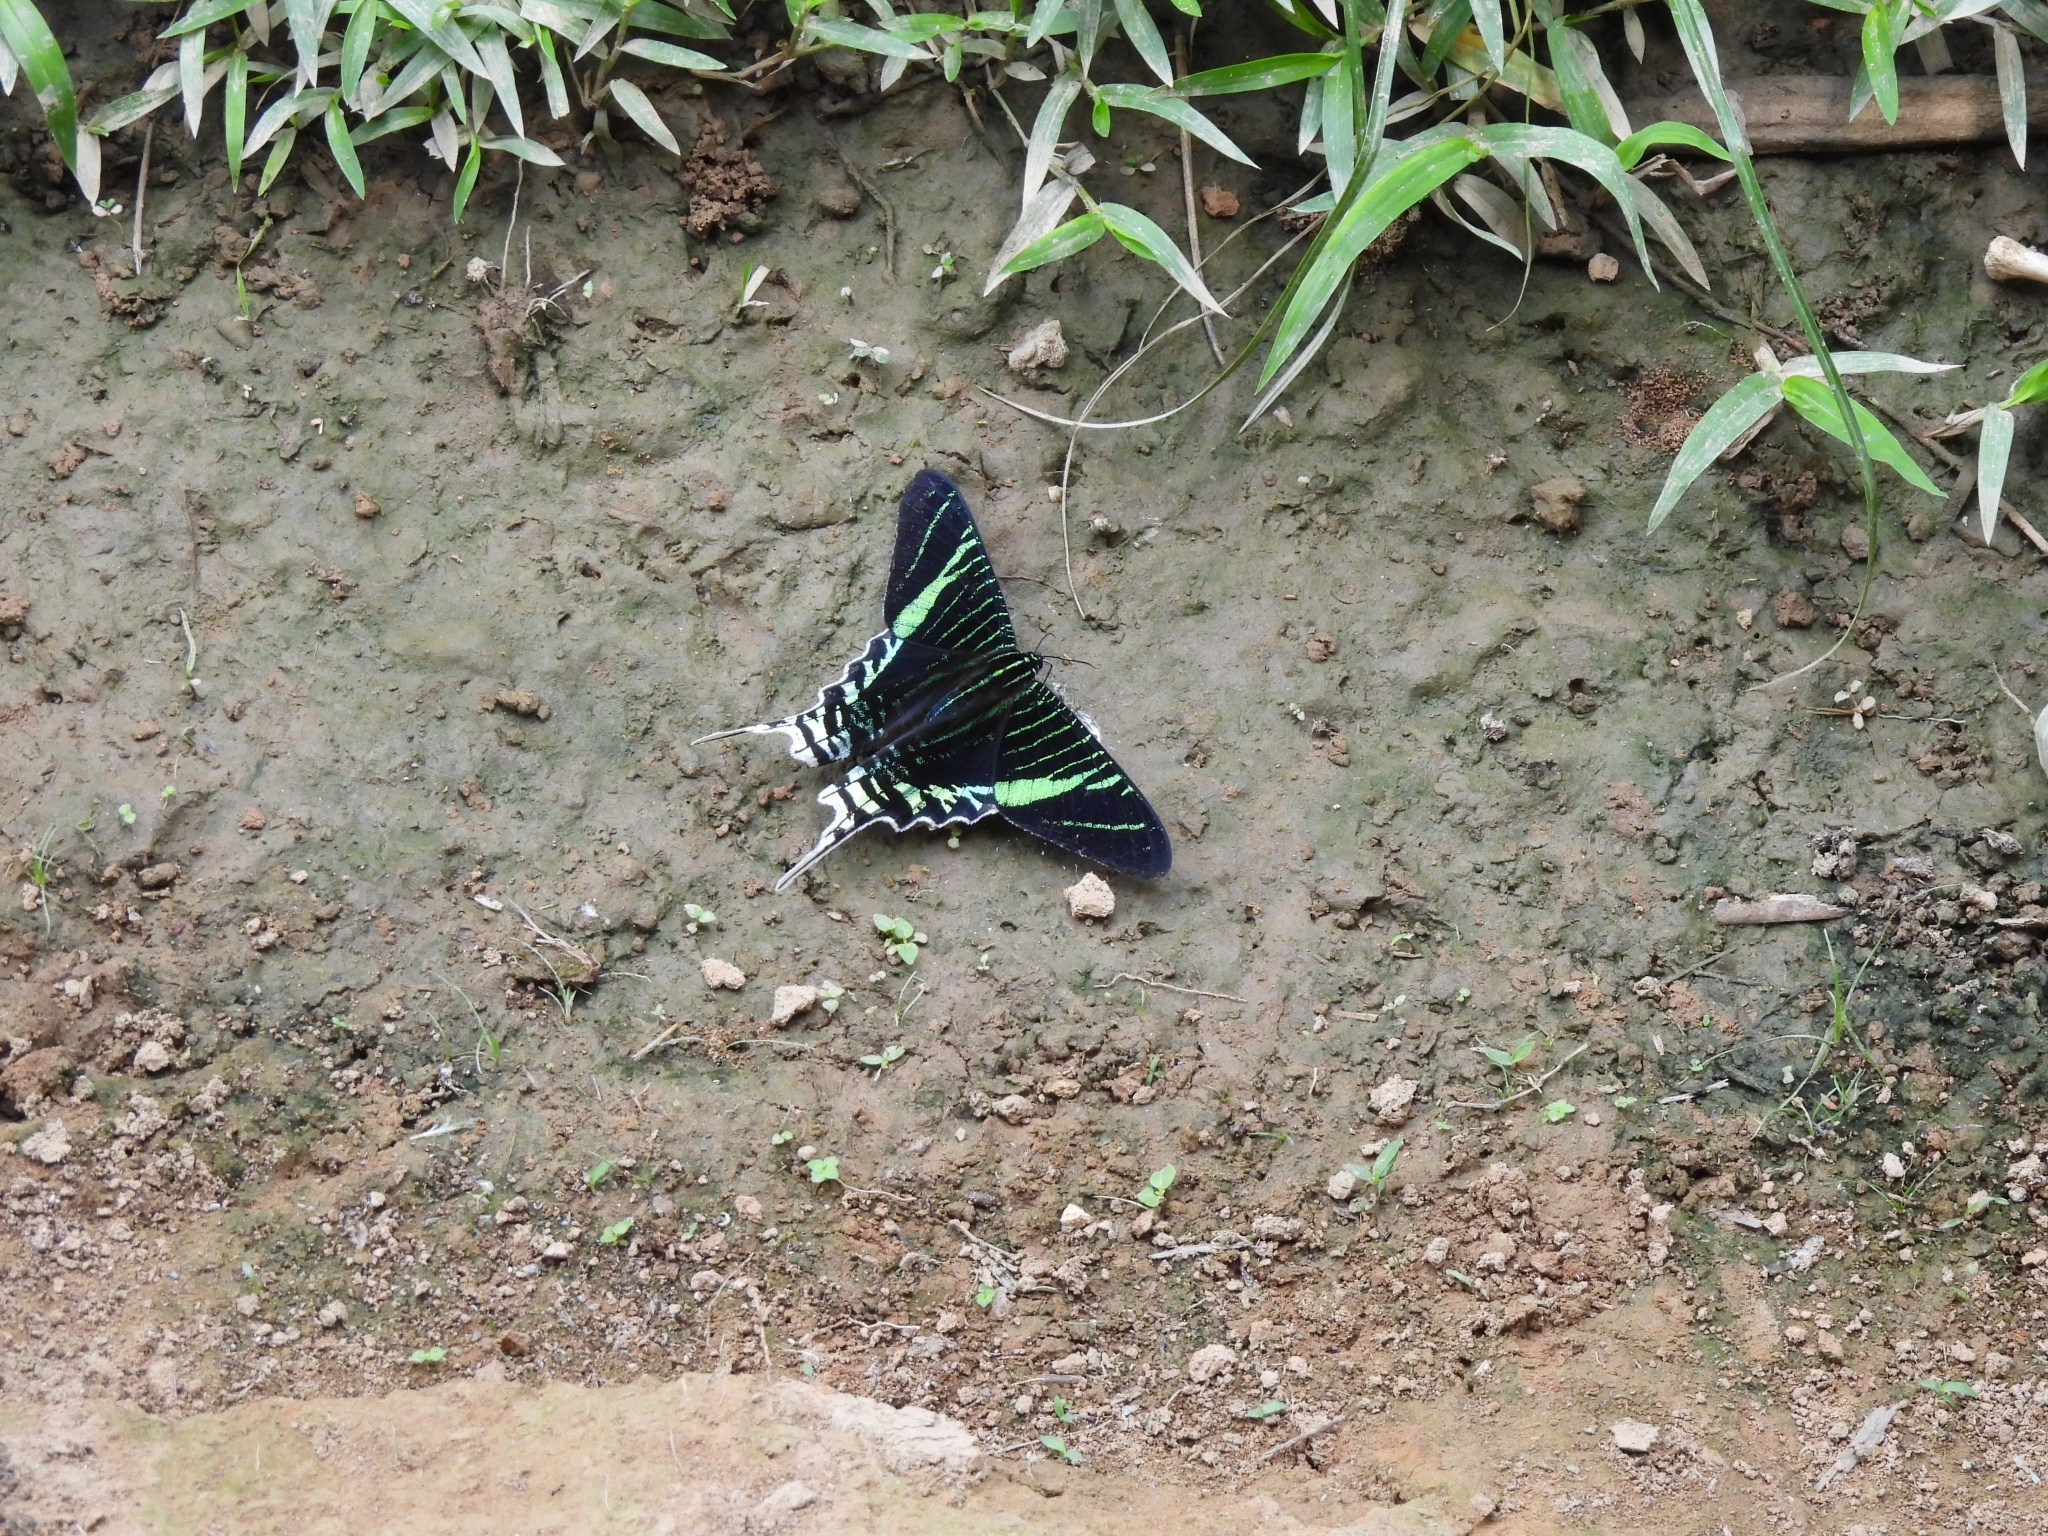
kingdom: Animalia
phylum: Arthropoda
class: Insecta
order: Lepidoptera
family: Uraniidae
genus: Urania
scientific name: Urania leilus
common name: Peacock moth
